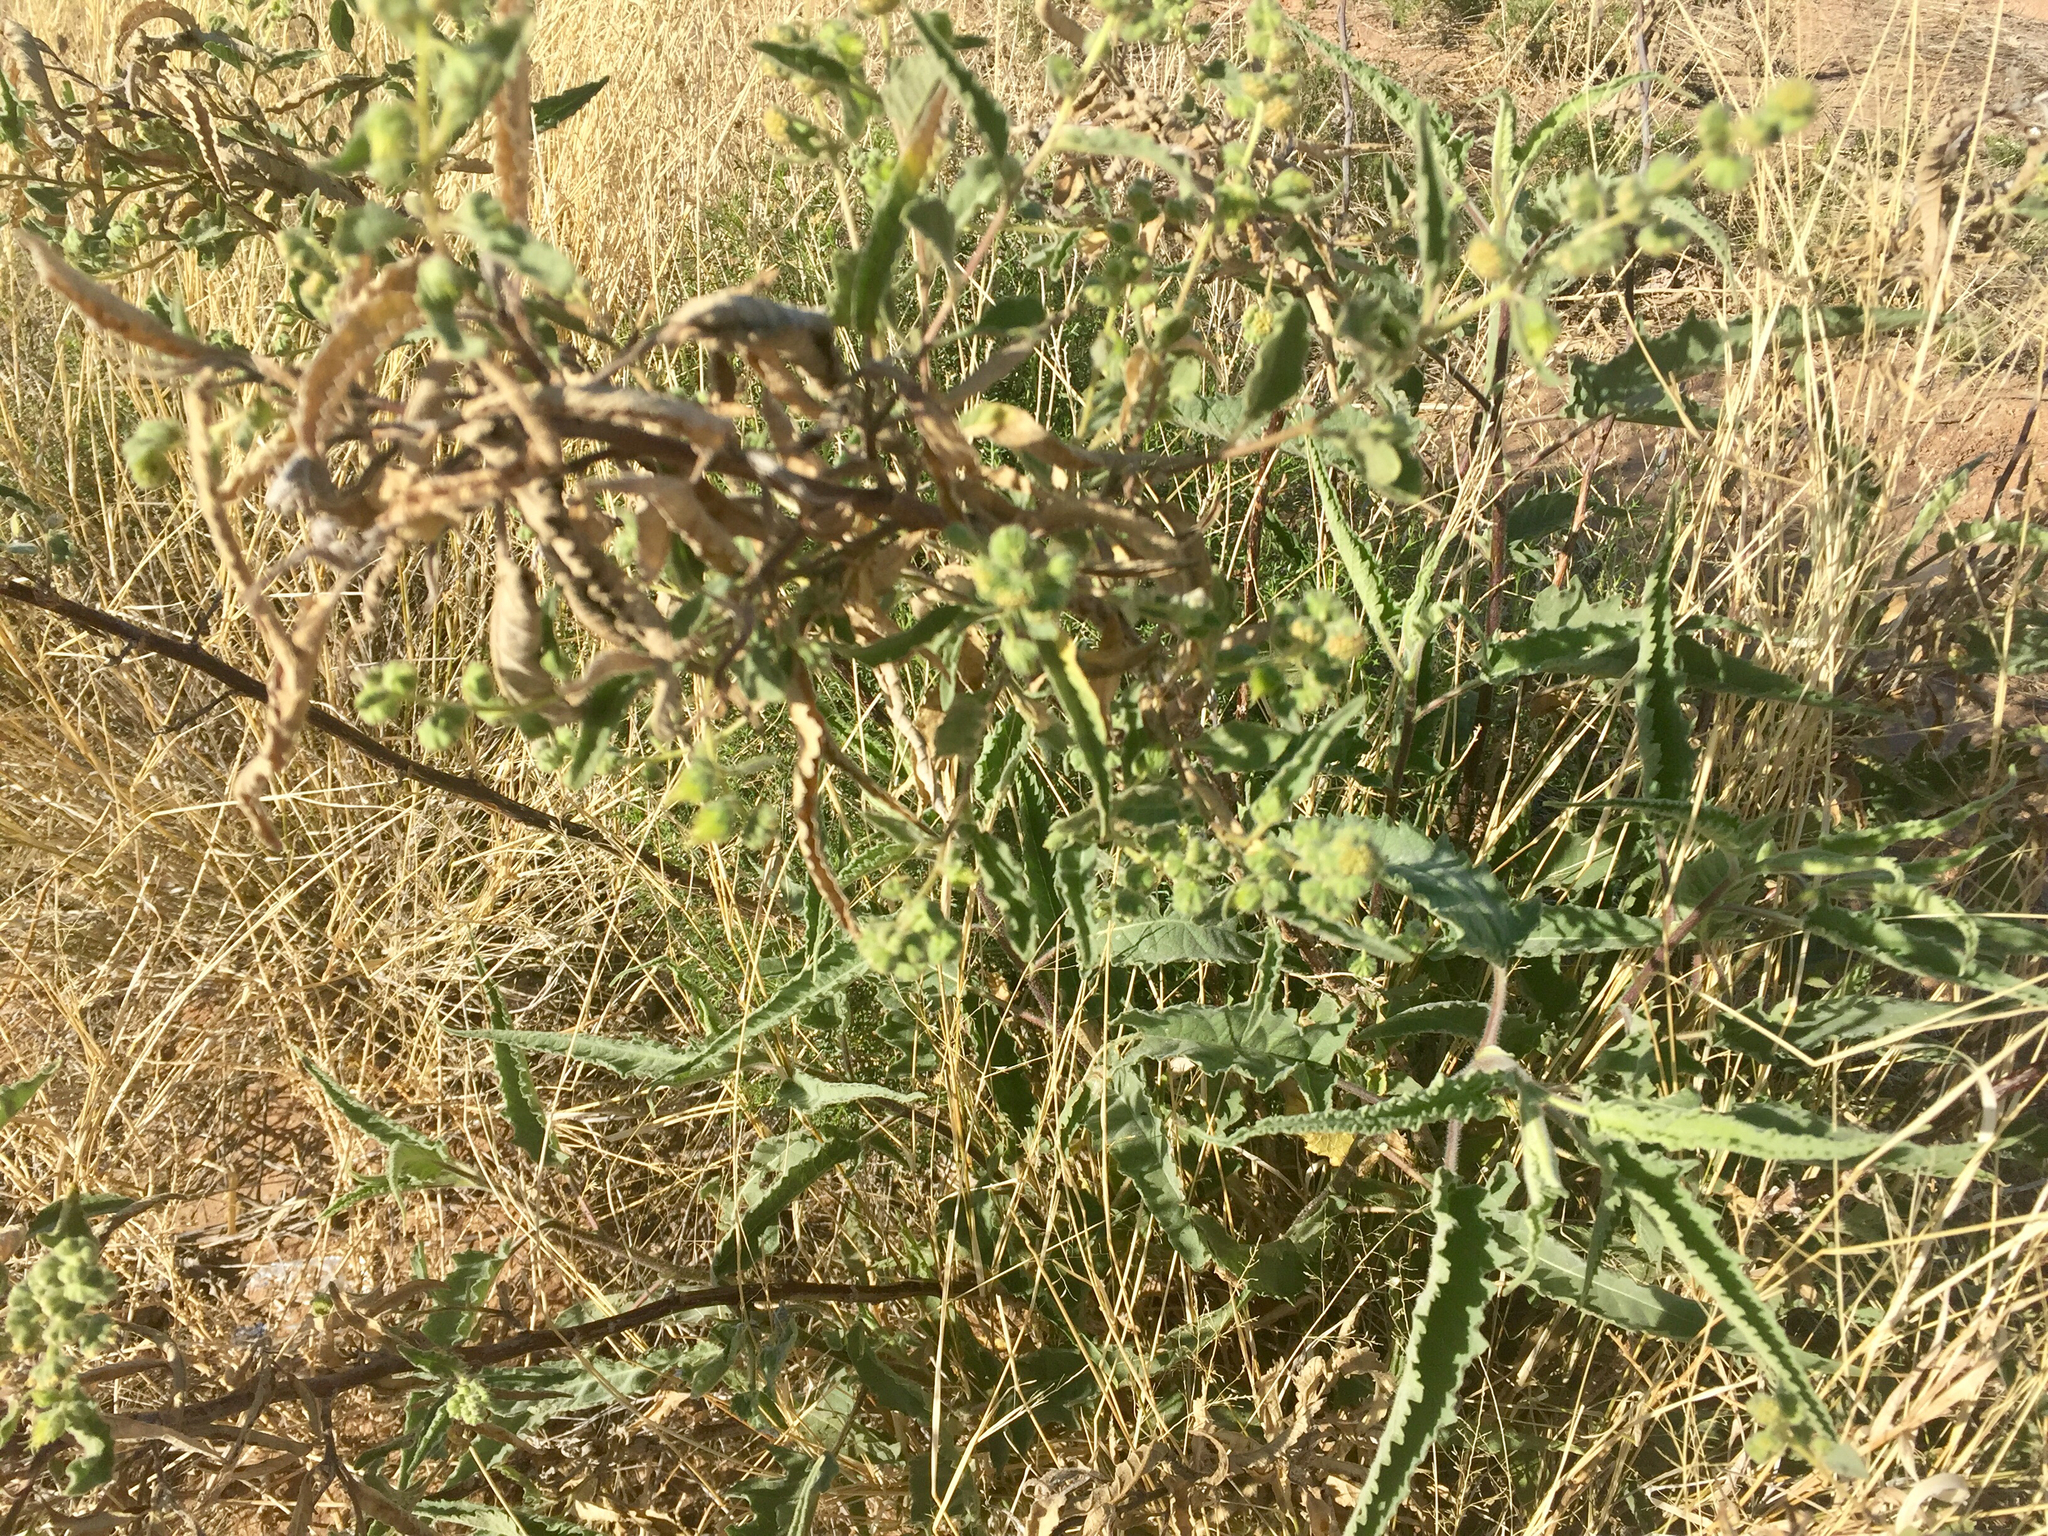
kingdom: Plantae
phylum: Tracheophyta
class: Magnoliopsida
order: Asterales
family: Asteraceae
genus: Ambrosia
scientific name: Ambrosia ambrosioides
